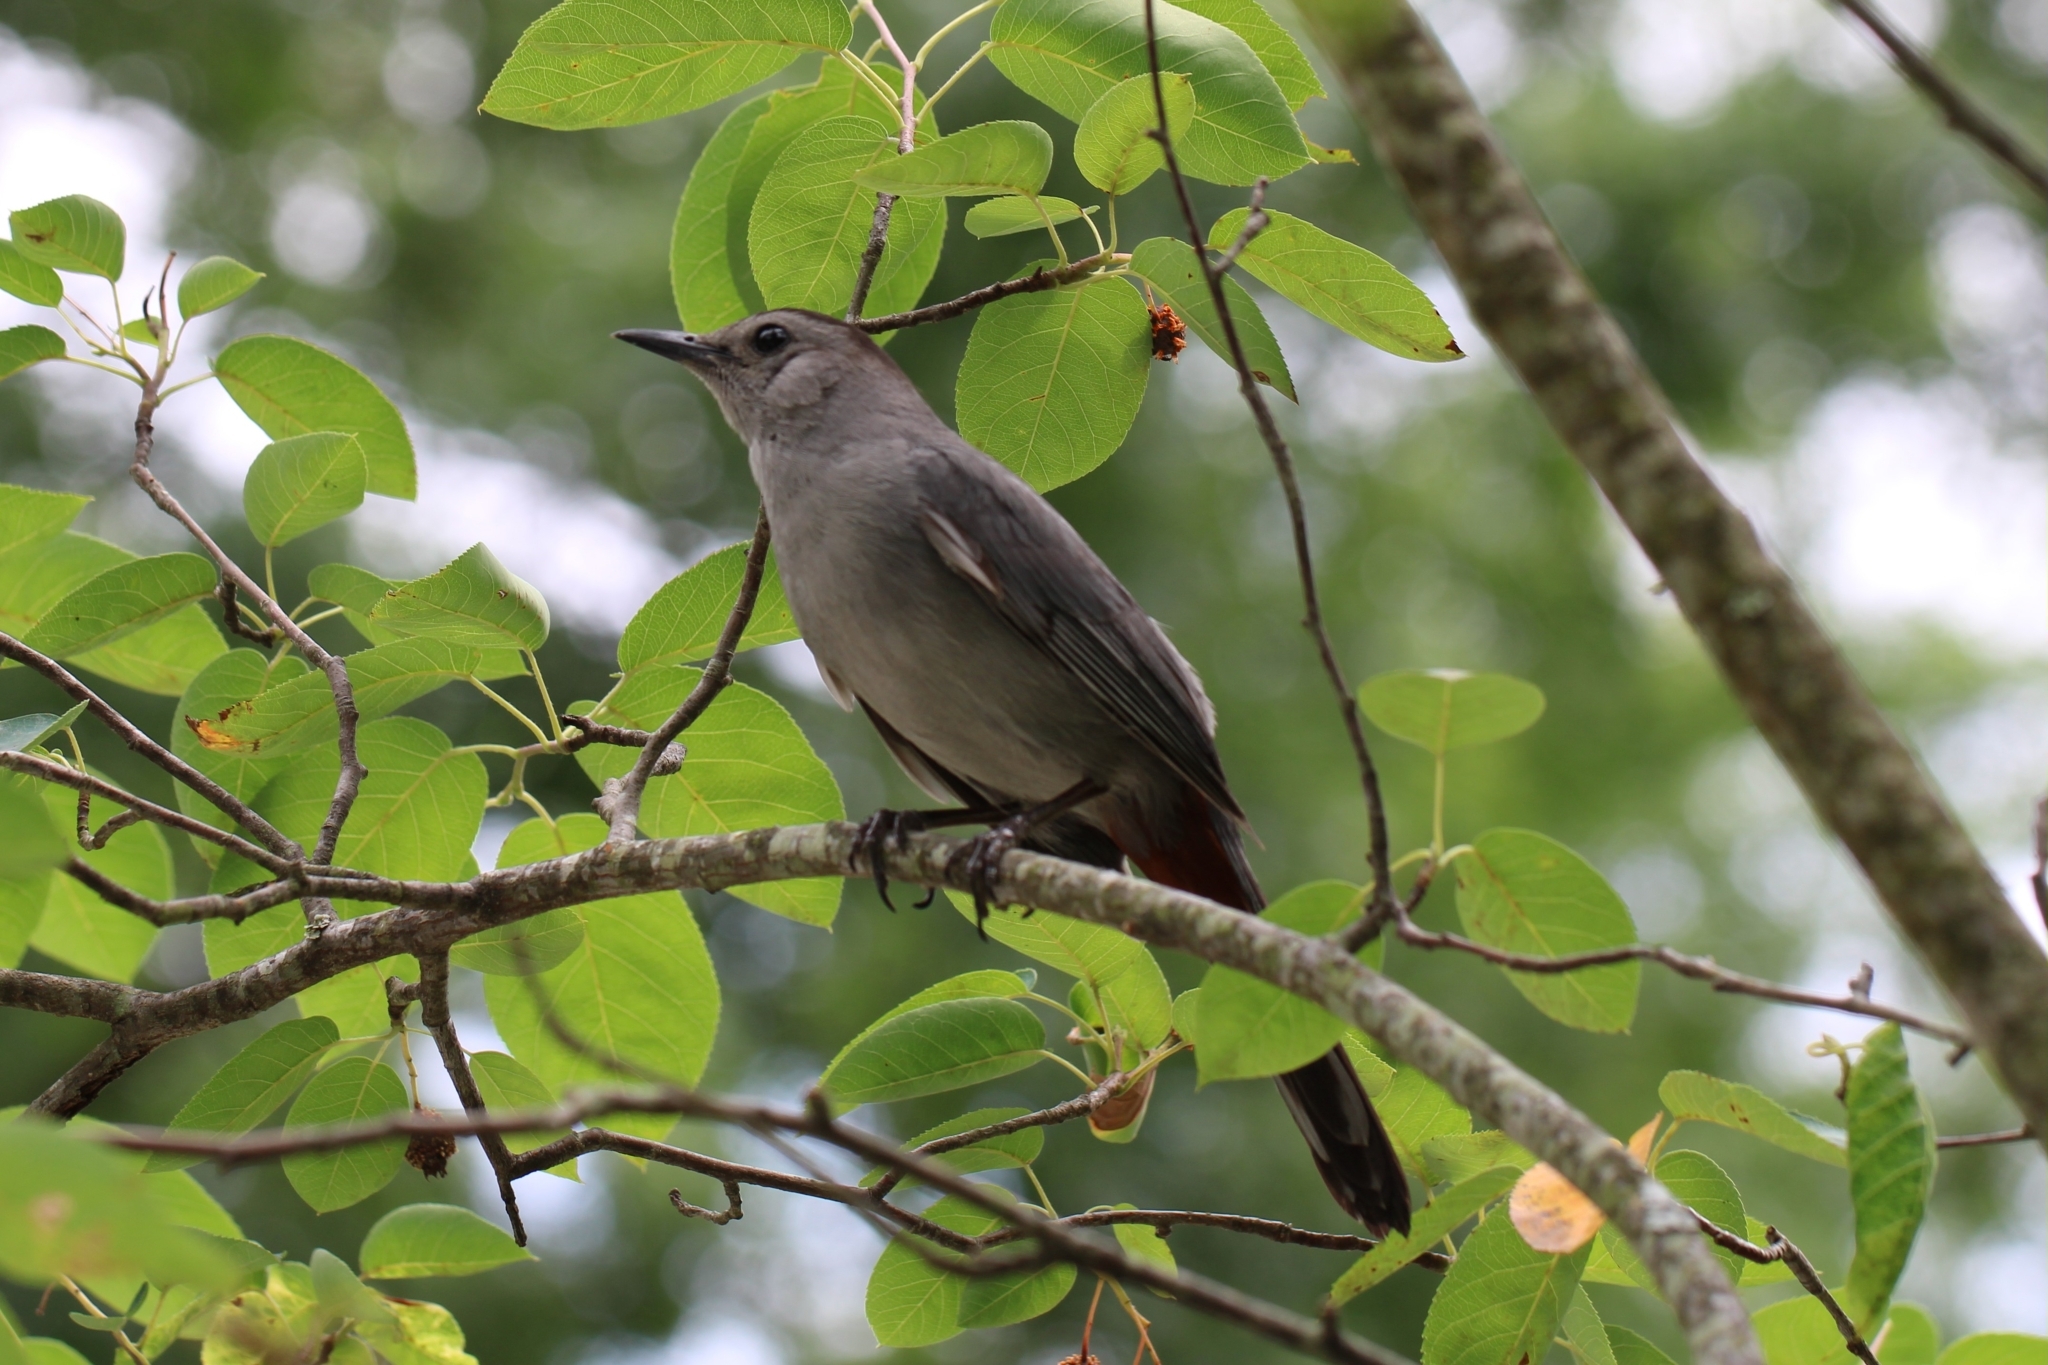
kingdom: Animalia
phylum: Chordata
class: Aves
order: Passeriformes
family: Mimidae
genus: Dumetella
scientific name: Dumetella carolinensis
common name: Gray catbird
